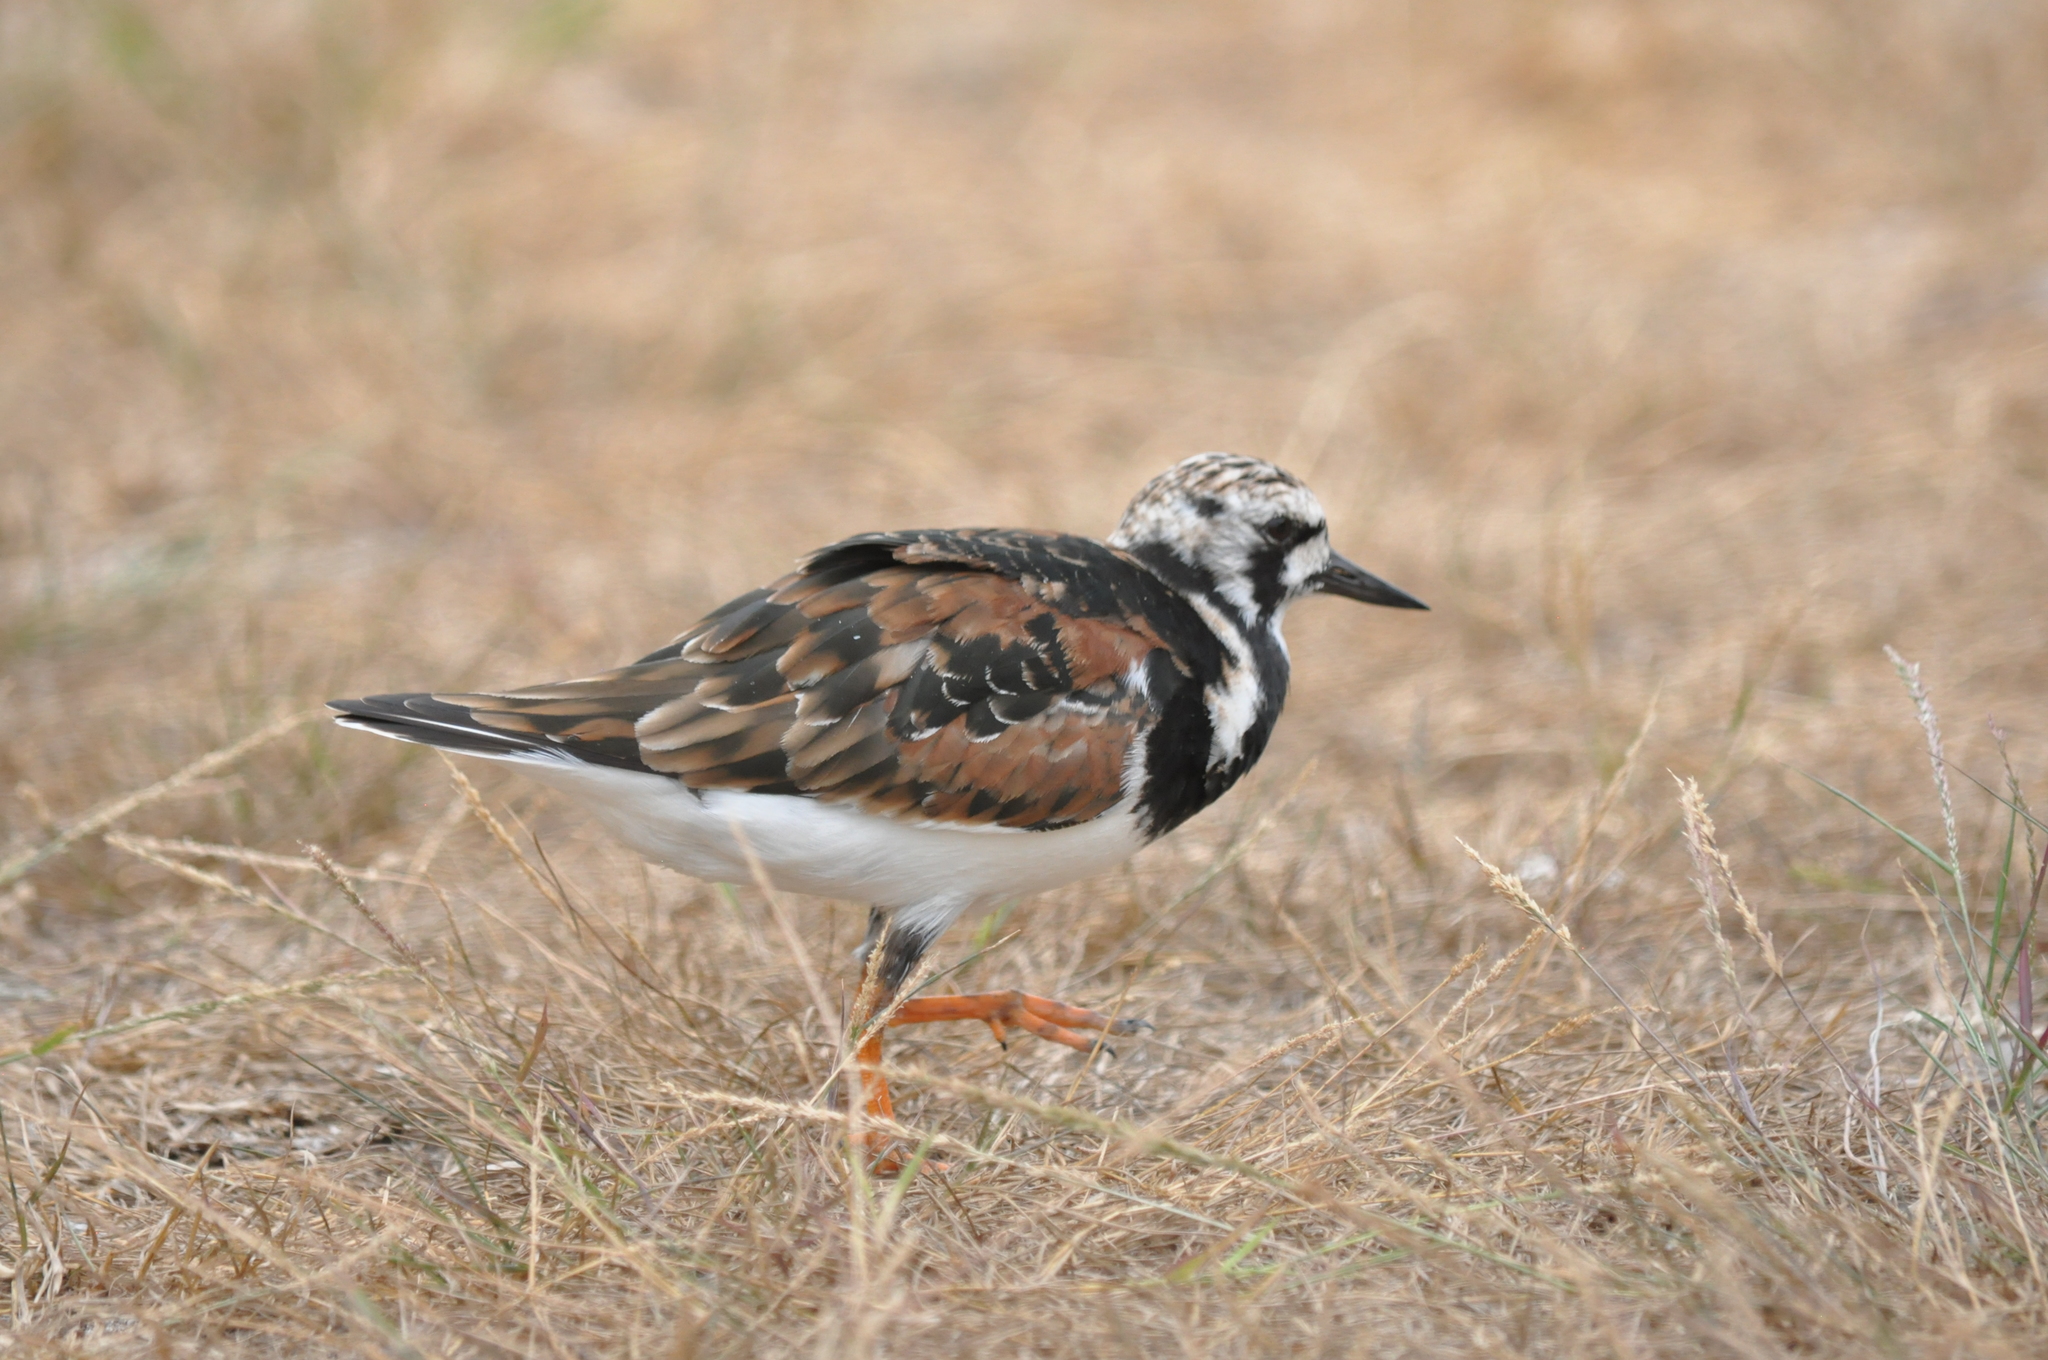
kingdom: Animalia
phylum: Chordata
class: Aves
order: Charadriiformes
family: Scolopacidae
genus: Arenaria
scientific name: Arenaria interpres
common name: Ruddy turnstone
